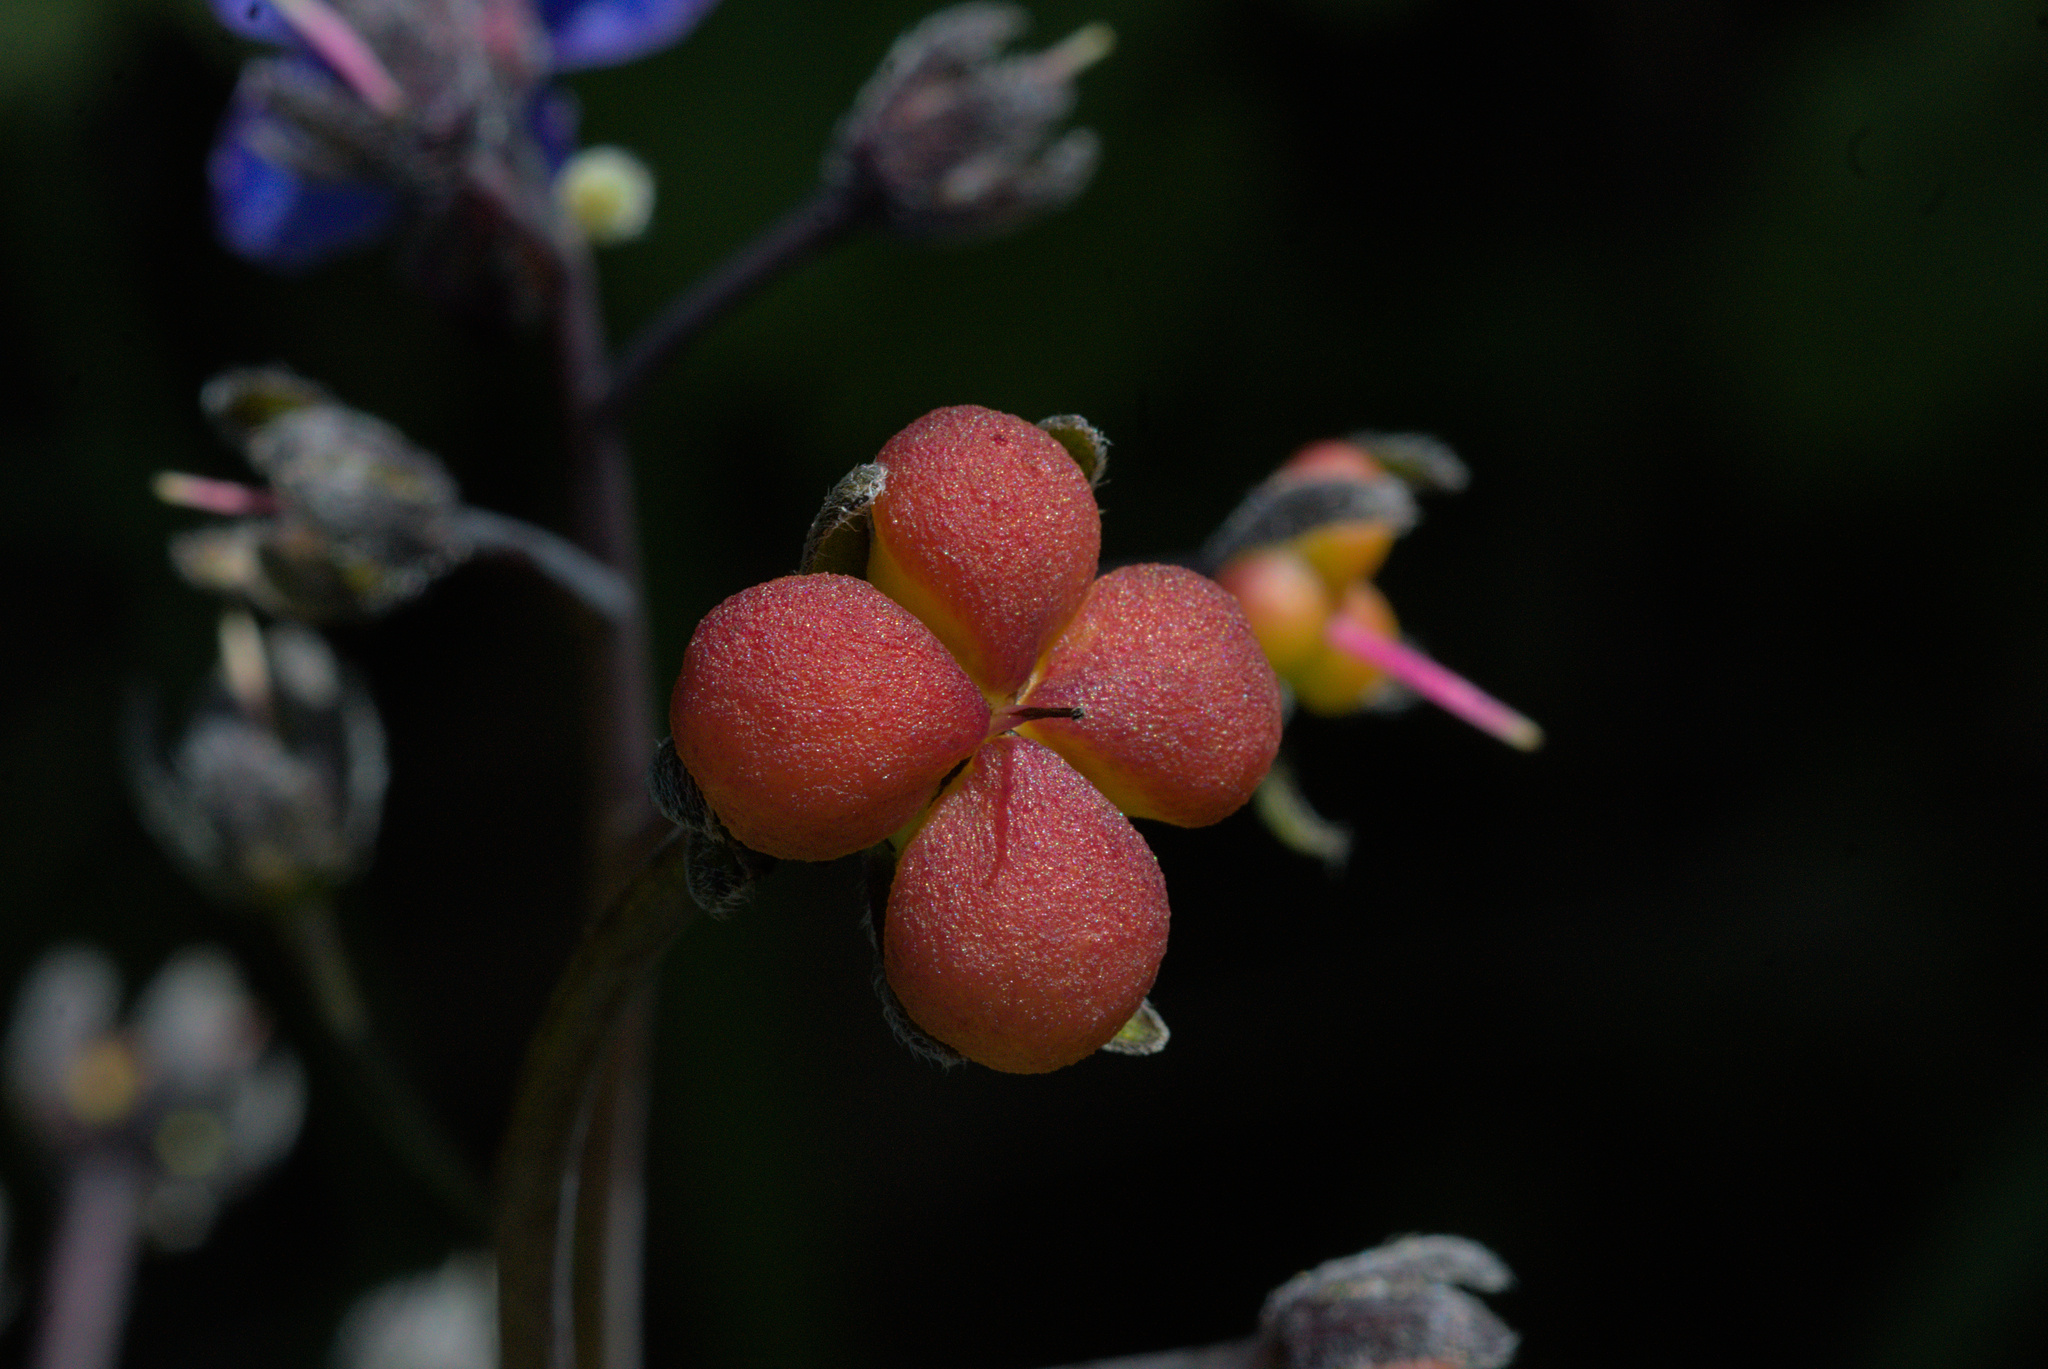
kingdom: Plantae
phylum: Tracheophyta
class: Magnoliopsida
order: Boraginales
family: Boraginaceae
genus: Adelinia
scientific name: Adelinia grande
